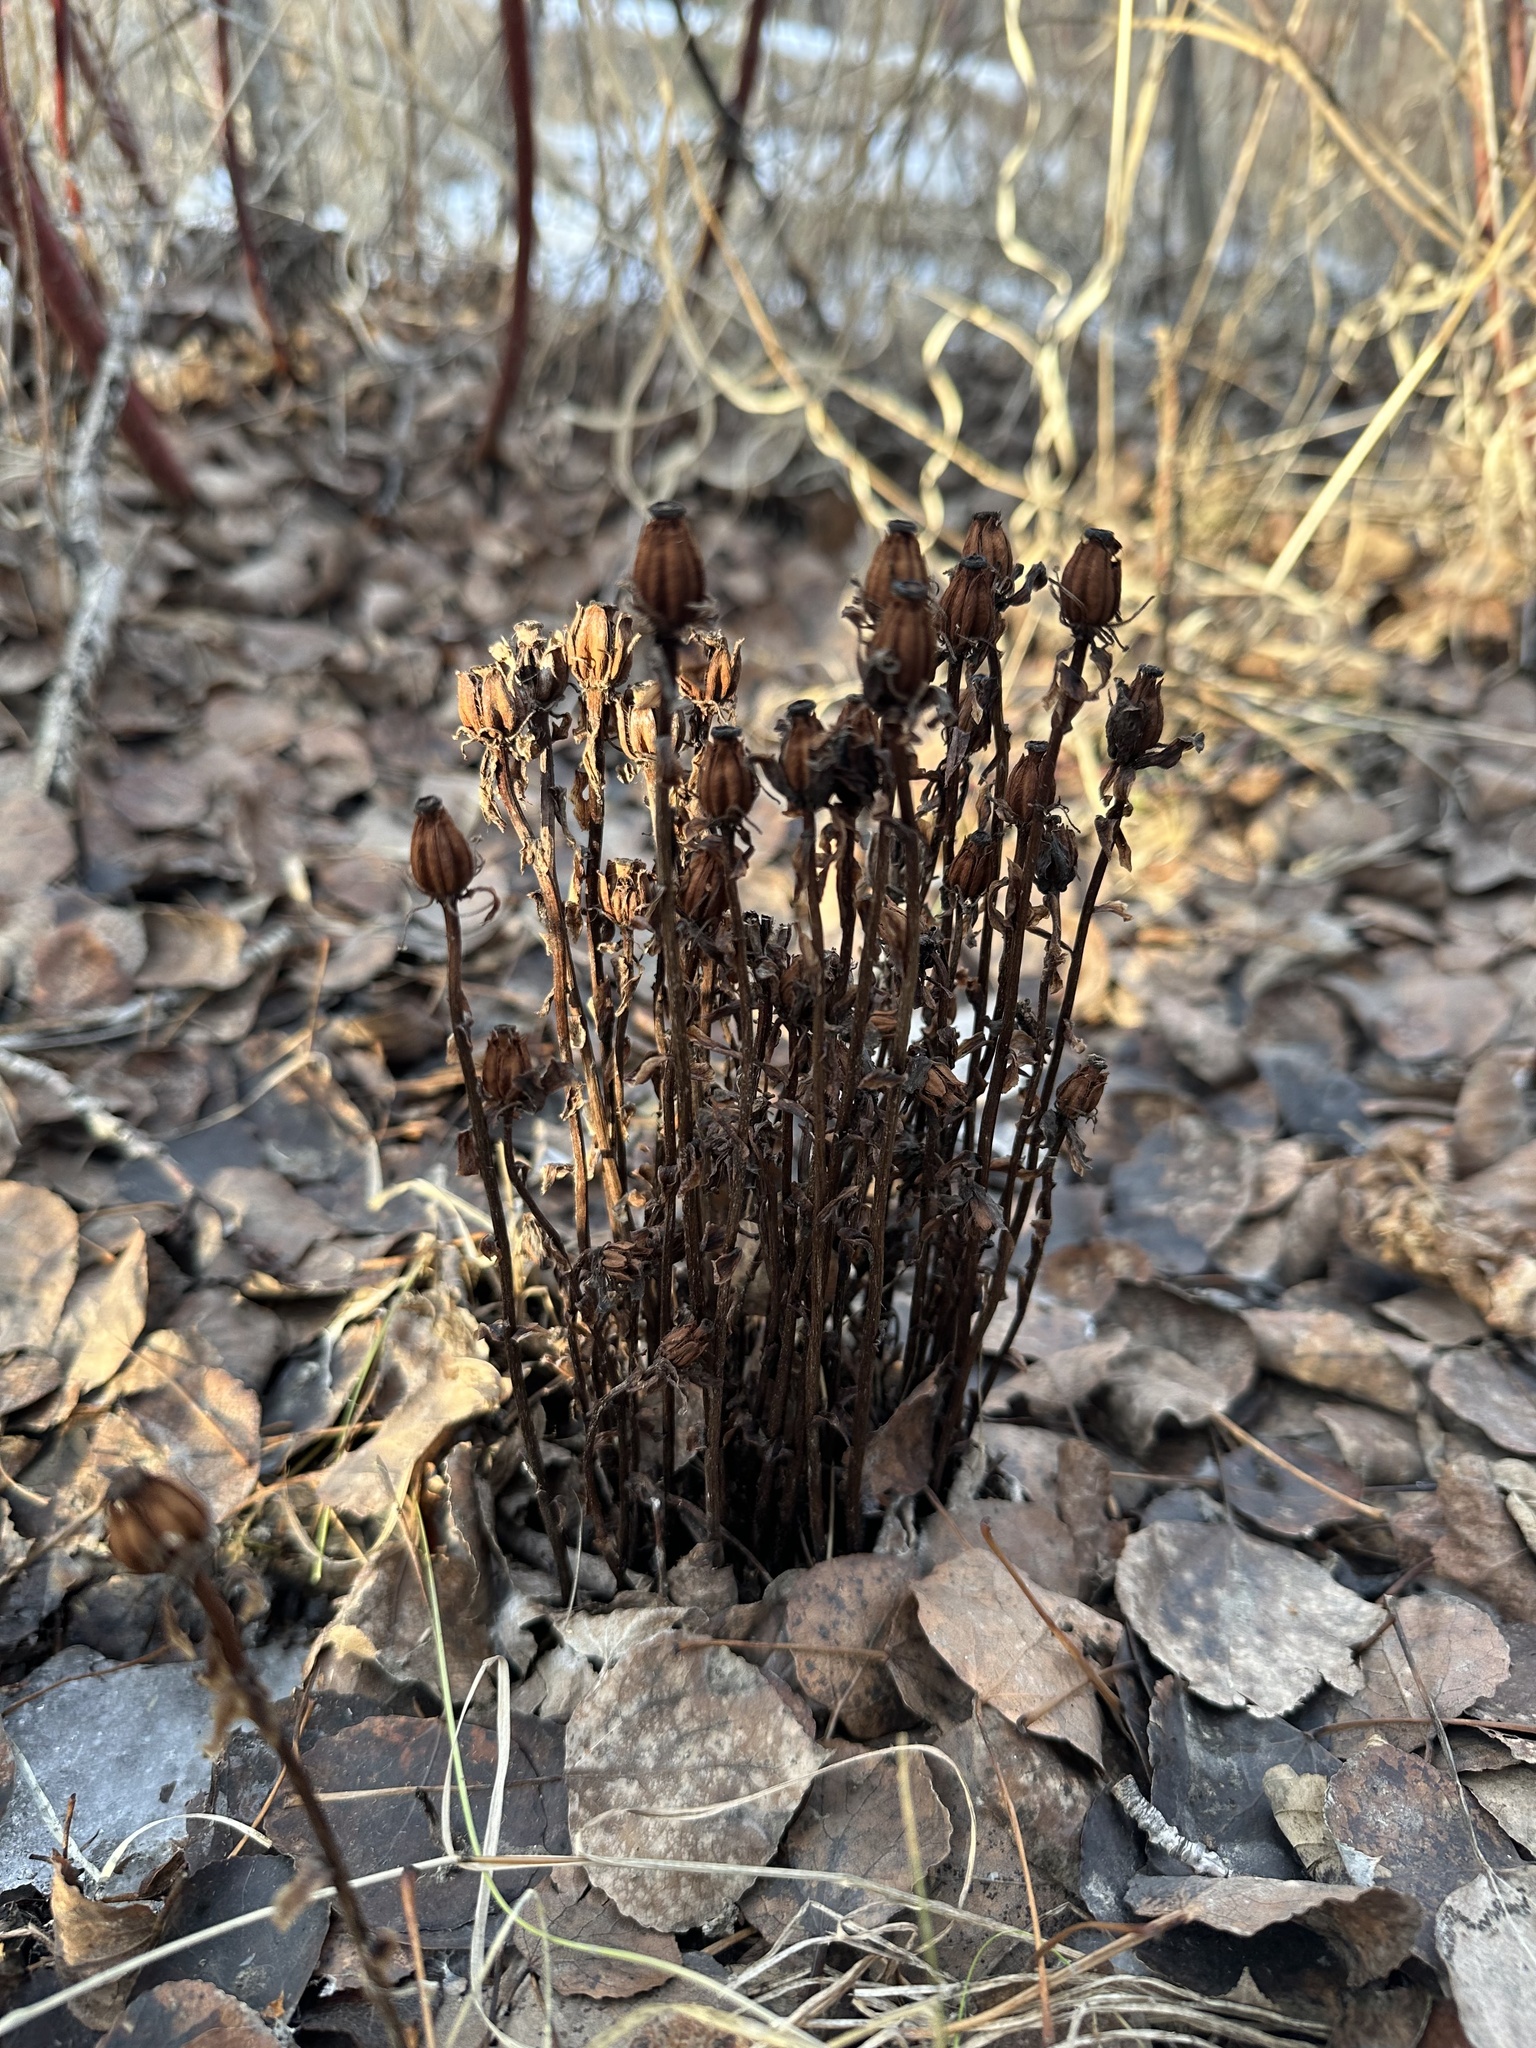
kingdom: Plantae
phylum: Tracheophyta
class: Magnoliopsida
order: Ericales
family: Ericaceae
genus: Monotropa
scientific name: Monotropa uniflora
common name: Convulsion root
